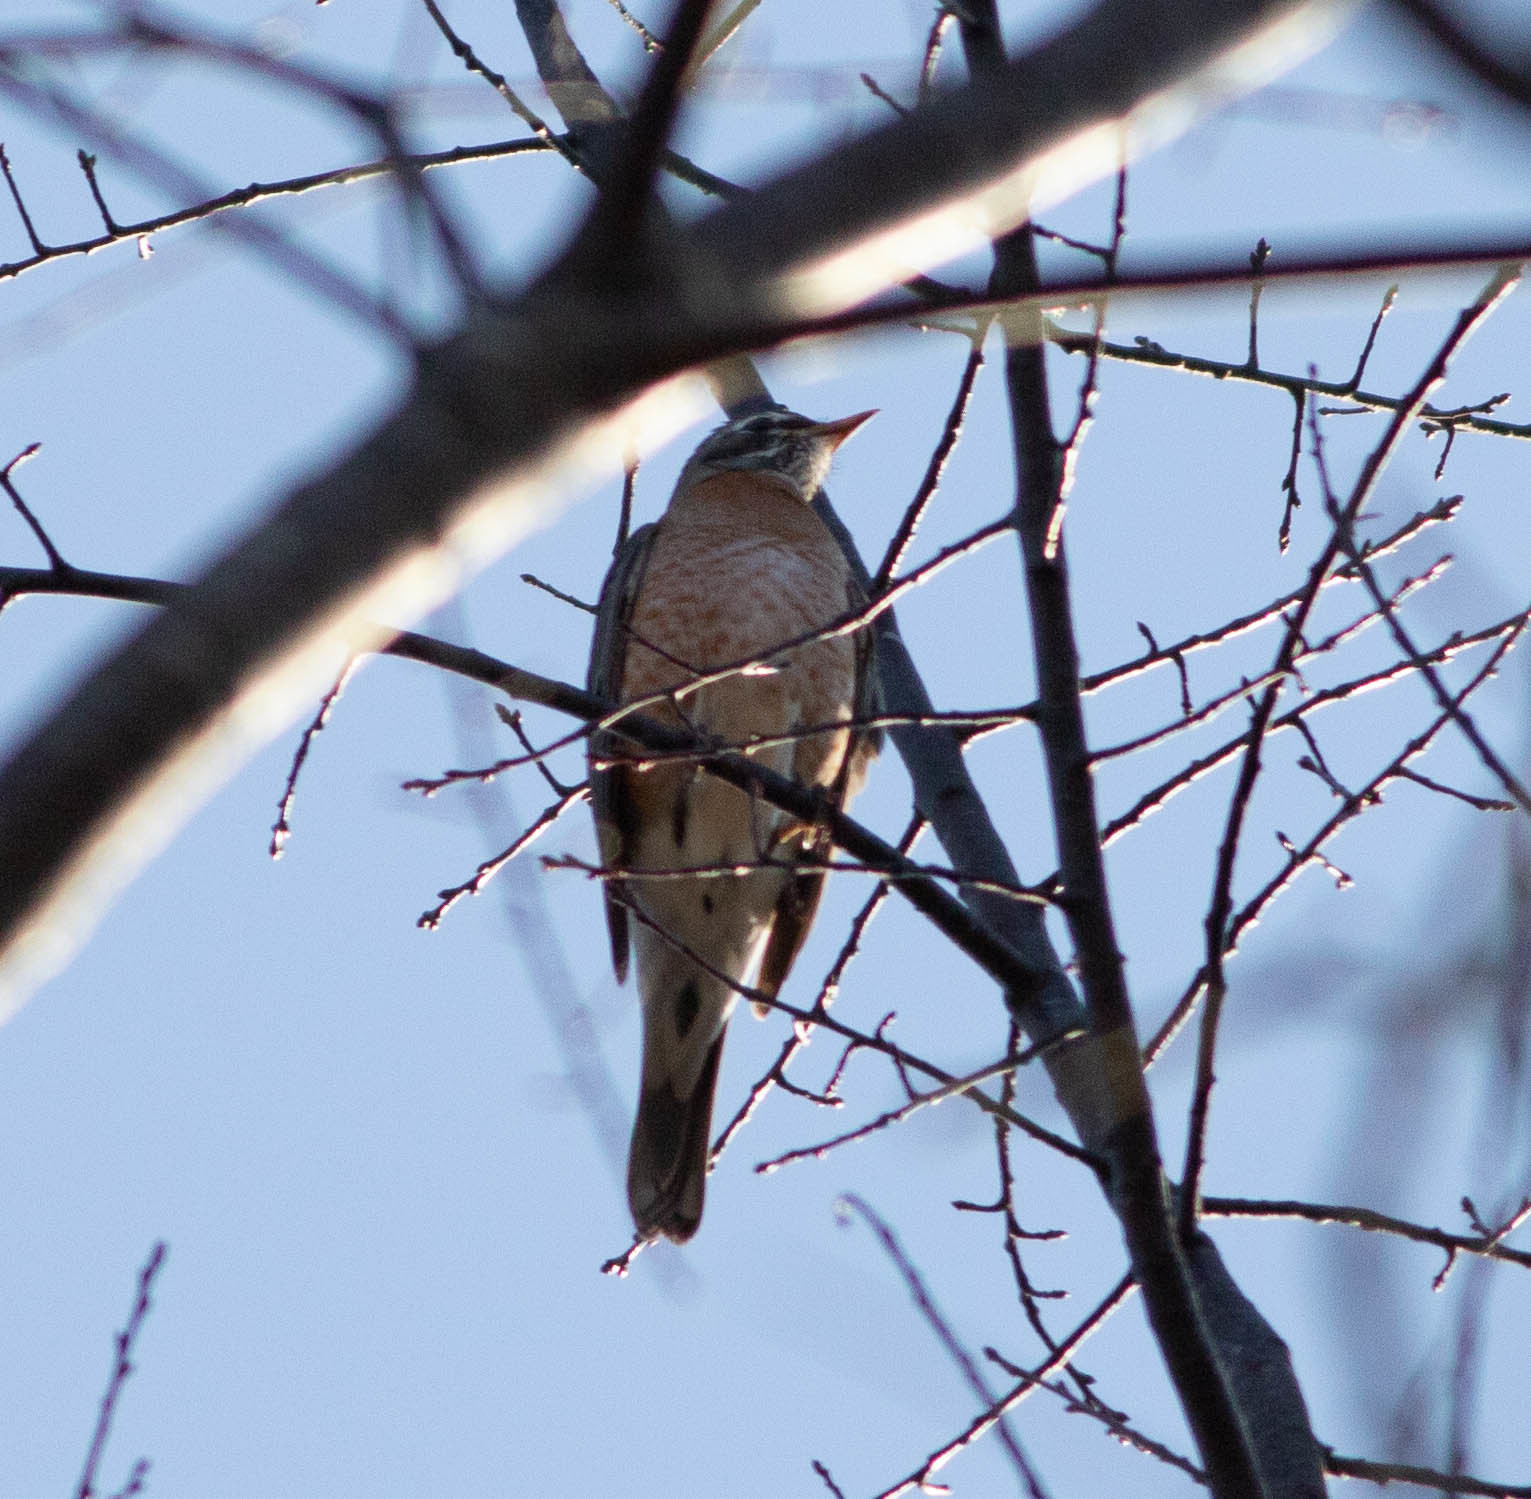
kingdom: Animalia
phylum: Chordata
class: Aves
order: Passeriformes
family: Turdidae
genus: Turdus
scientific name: Turdus migratorius
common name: American robin
